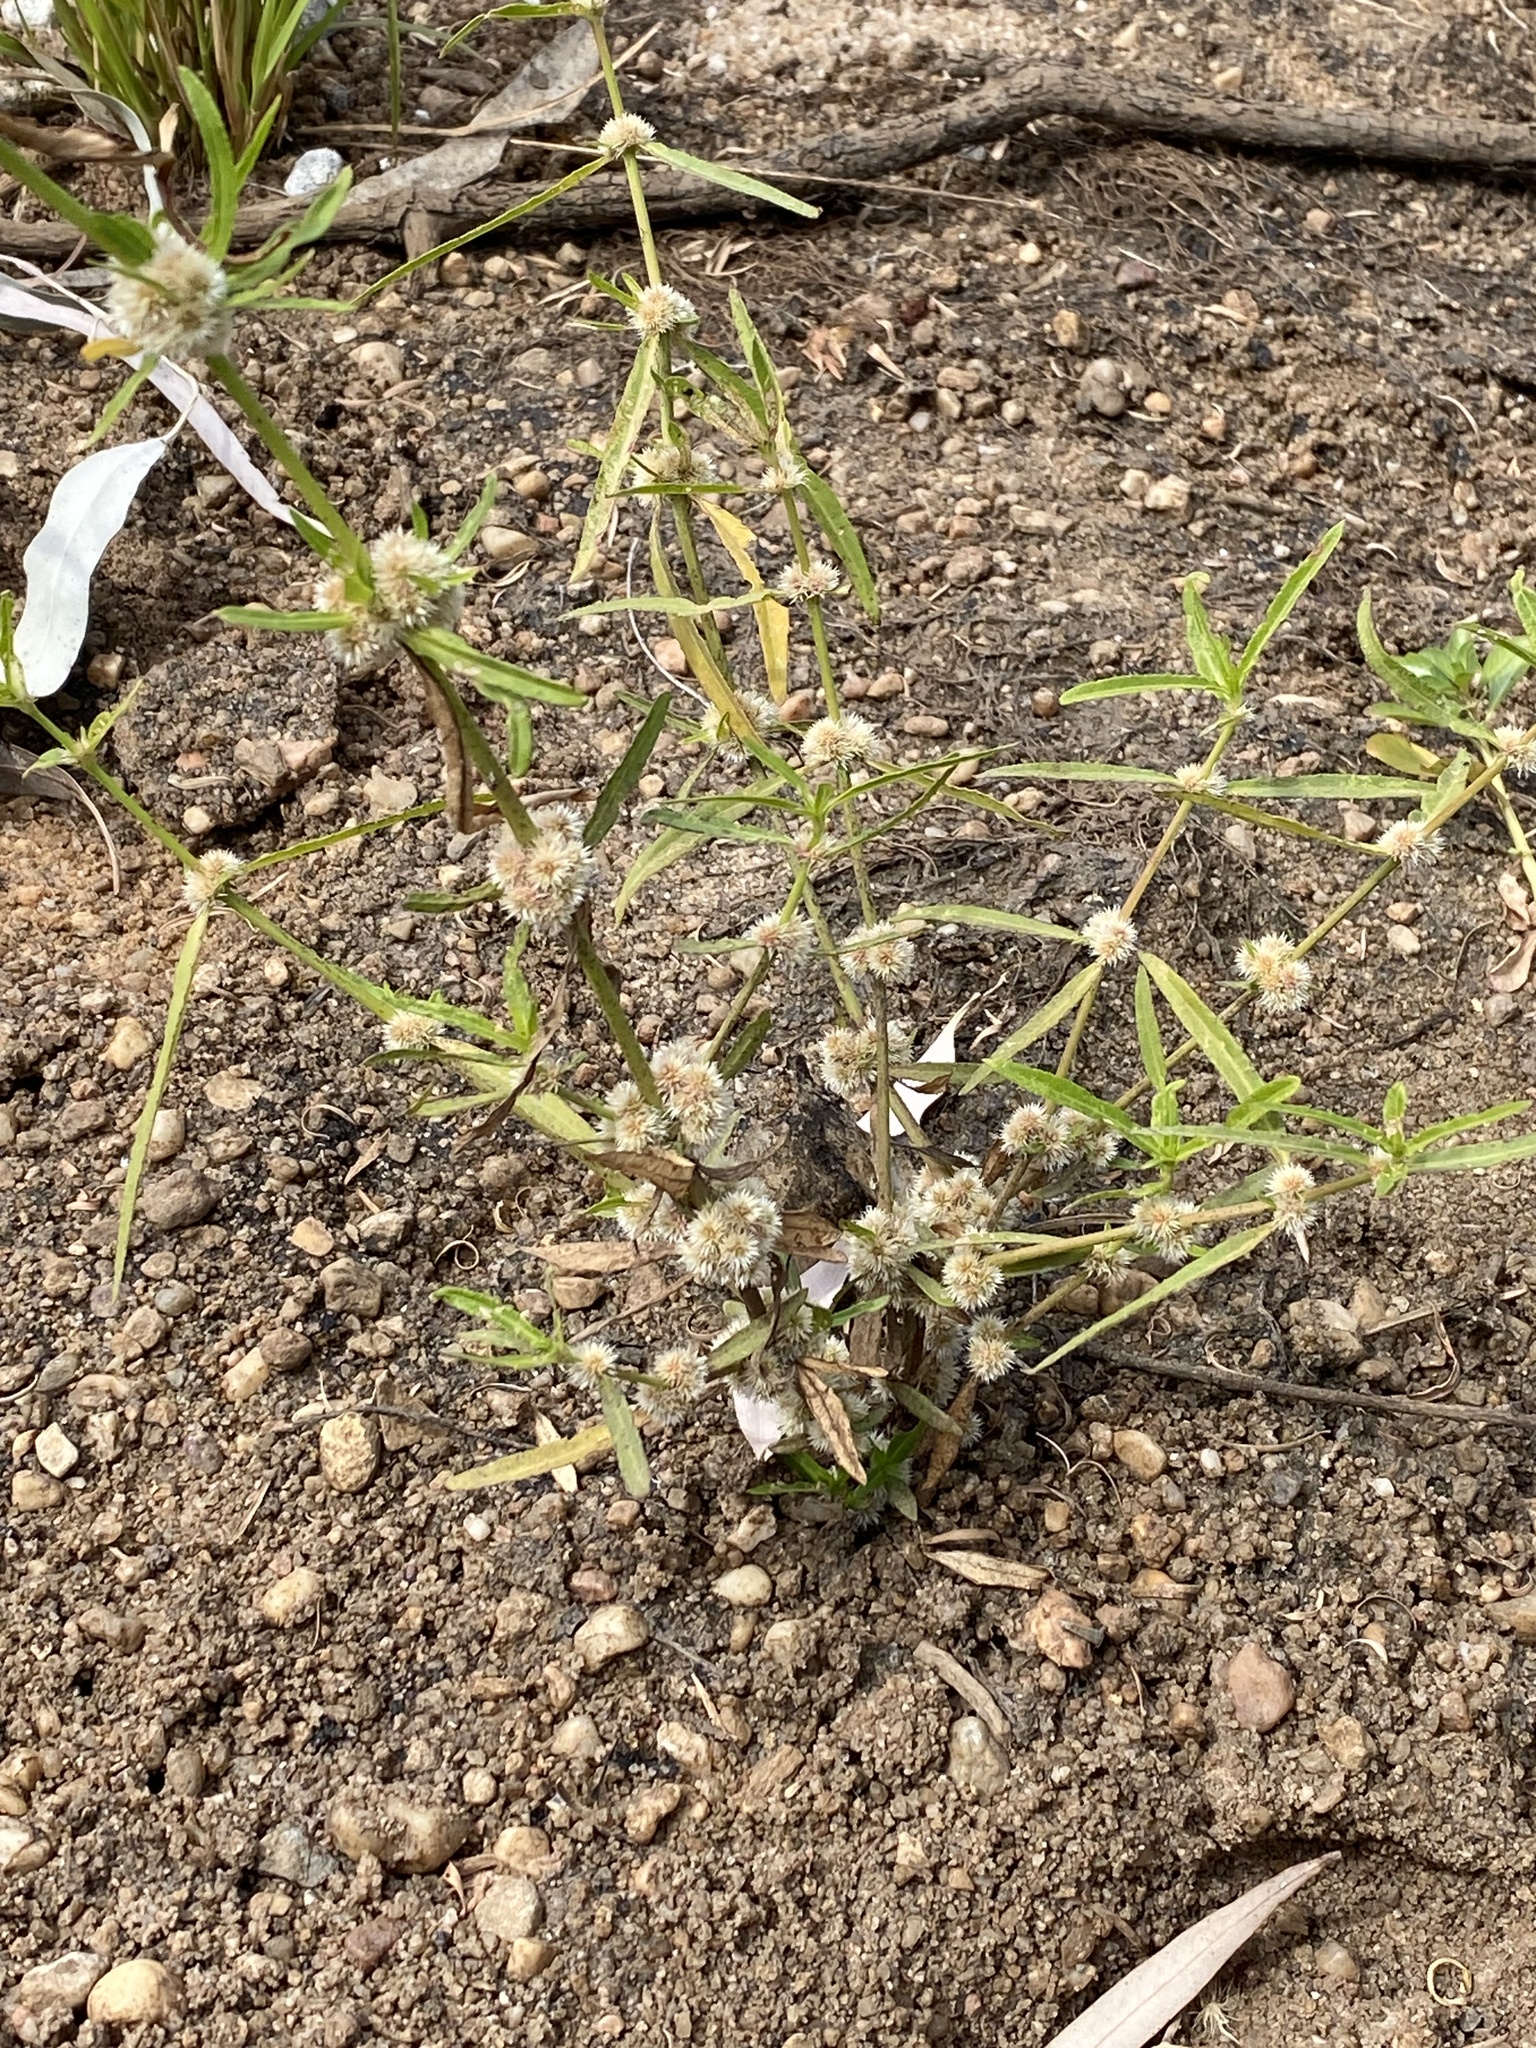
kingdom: Plantae
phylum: Tracheophyta
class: Magnoliopsida
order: Caryophyllales
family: Amaranthaceae
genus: Alternanthera
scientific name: Alternanthera sessilis
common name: Sessile joyweed
